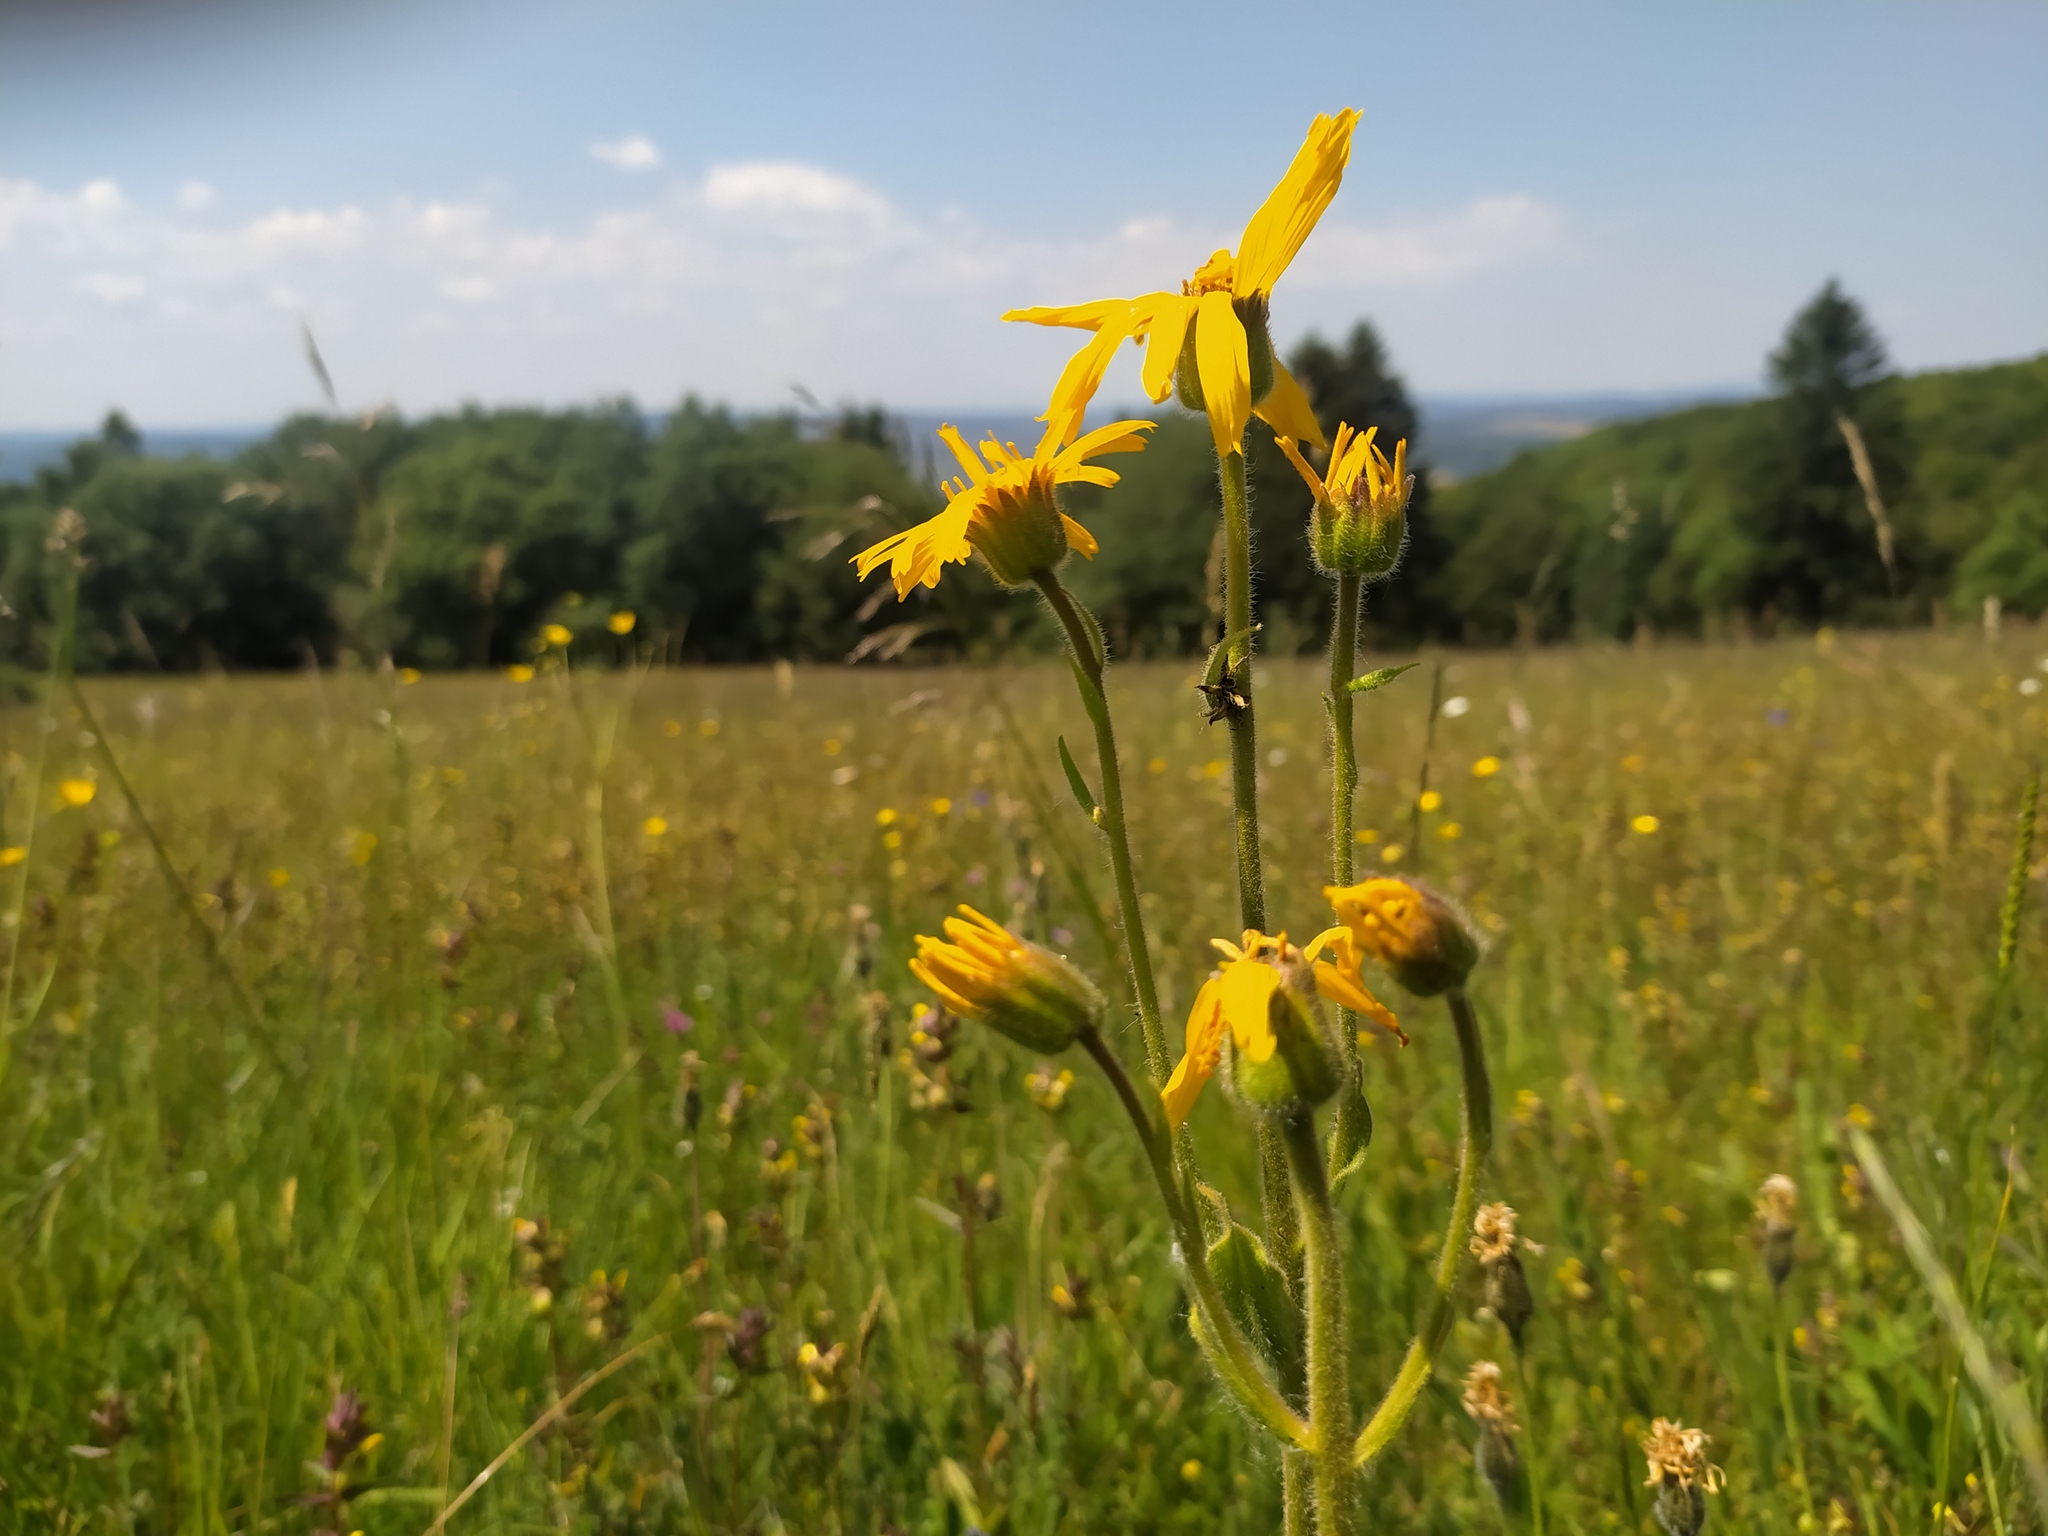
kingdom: Plantae
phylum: Tracheophyta
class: Magnoliopsida
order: Asterales
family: Asteraceae
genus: Arnica
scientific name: Arnica montana
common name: Leopard's bane
